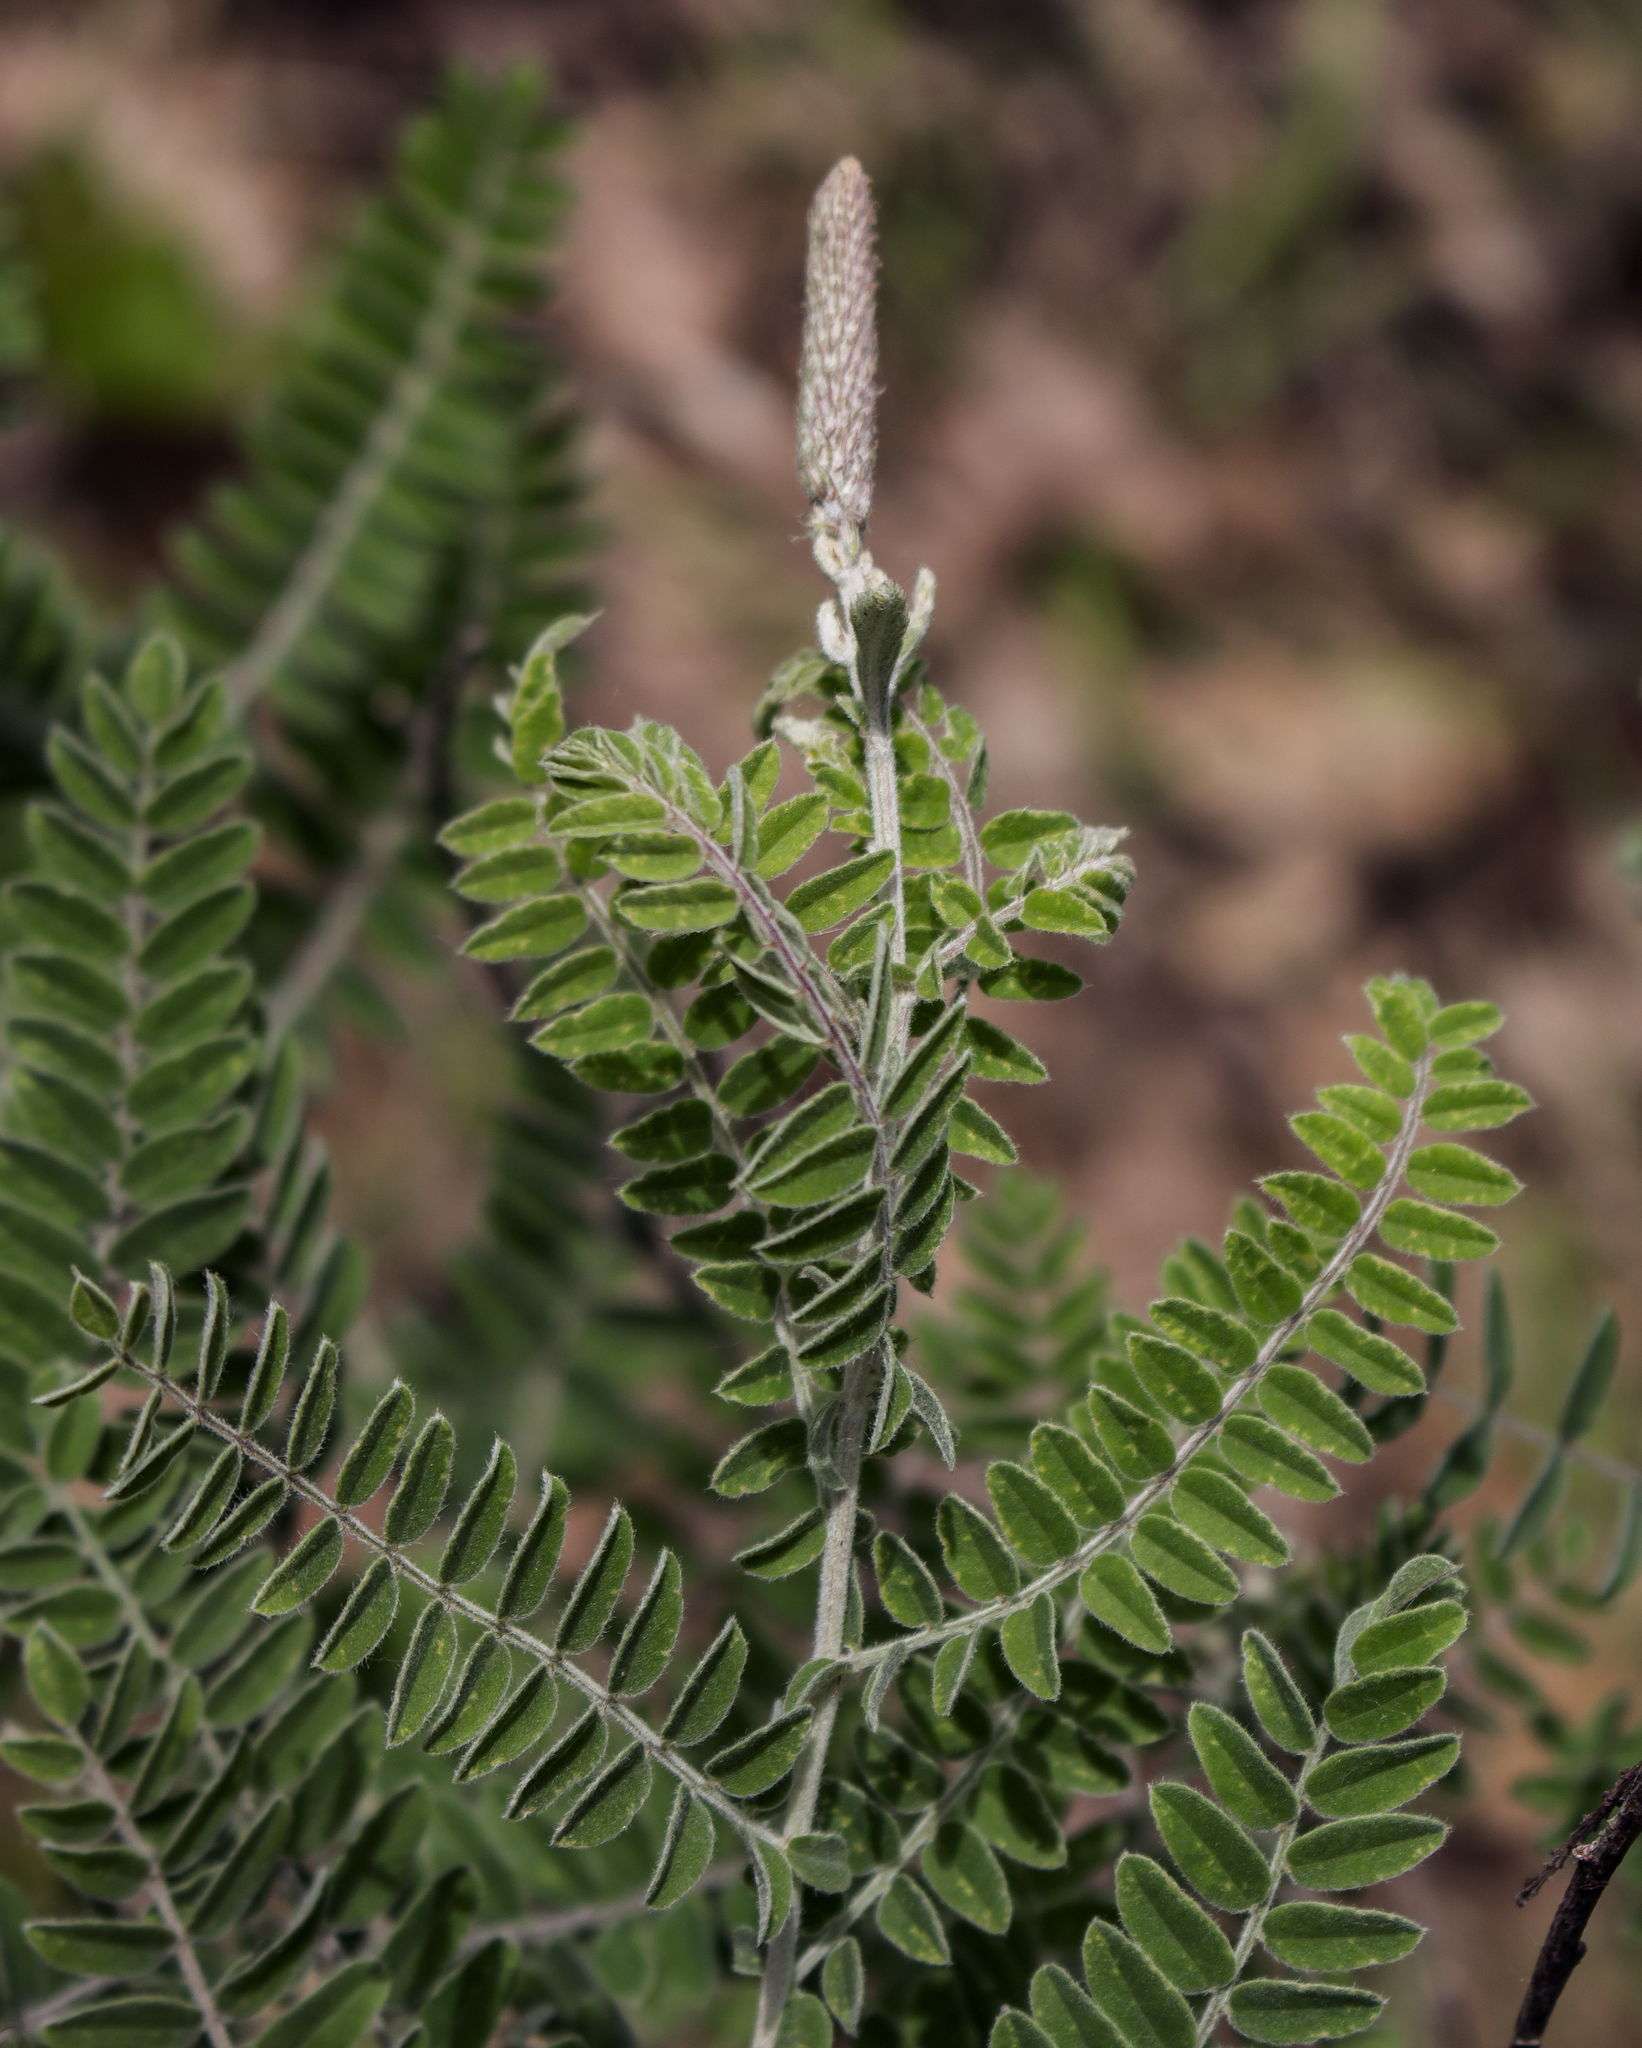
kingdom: Plantae
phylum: Tracheophyta
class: Magnoliopsida
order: Fabales
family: Fabaceae
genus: Amorpha
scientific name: Amorpha canescens
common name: Leadplant
